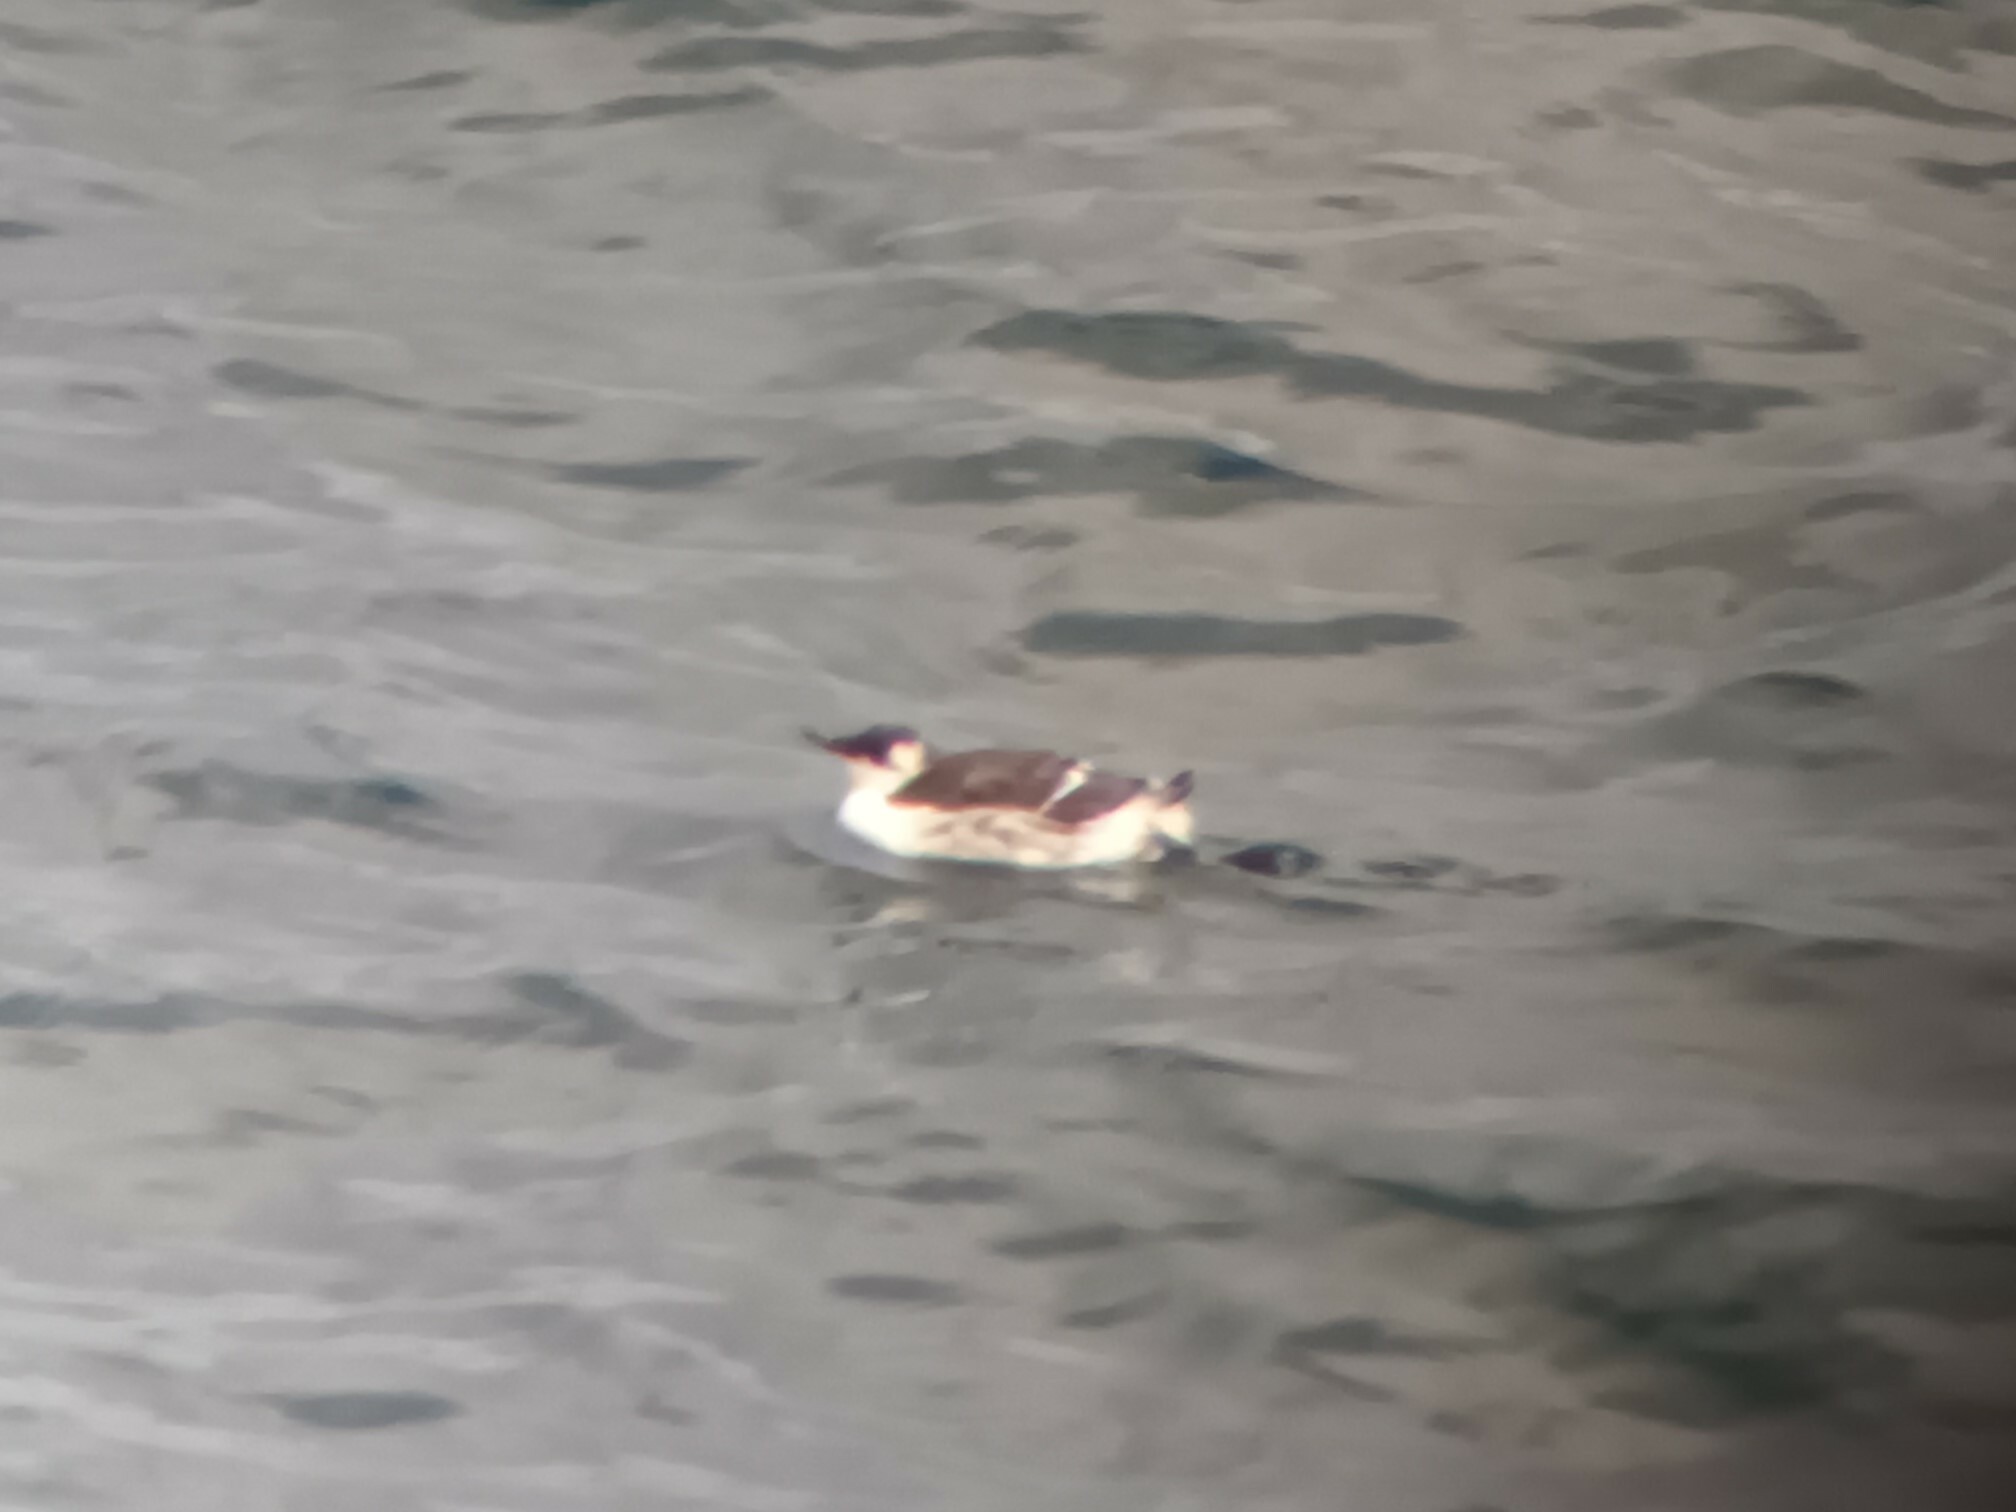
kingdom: Animalia
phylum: Chordata
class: Aves
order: Charadriiformes
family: Alcidae
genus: Uria
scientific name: Uria aalge
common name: Common murre
